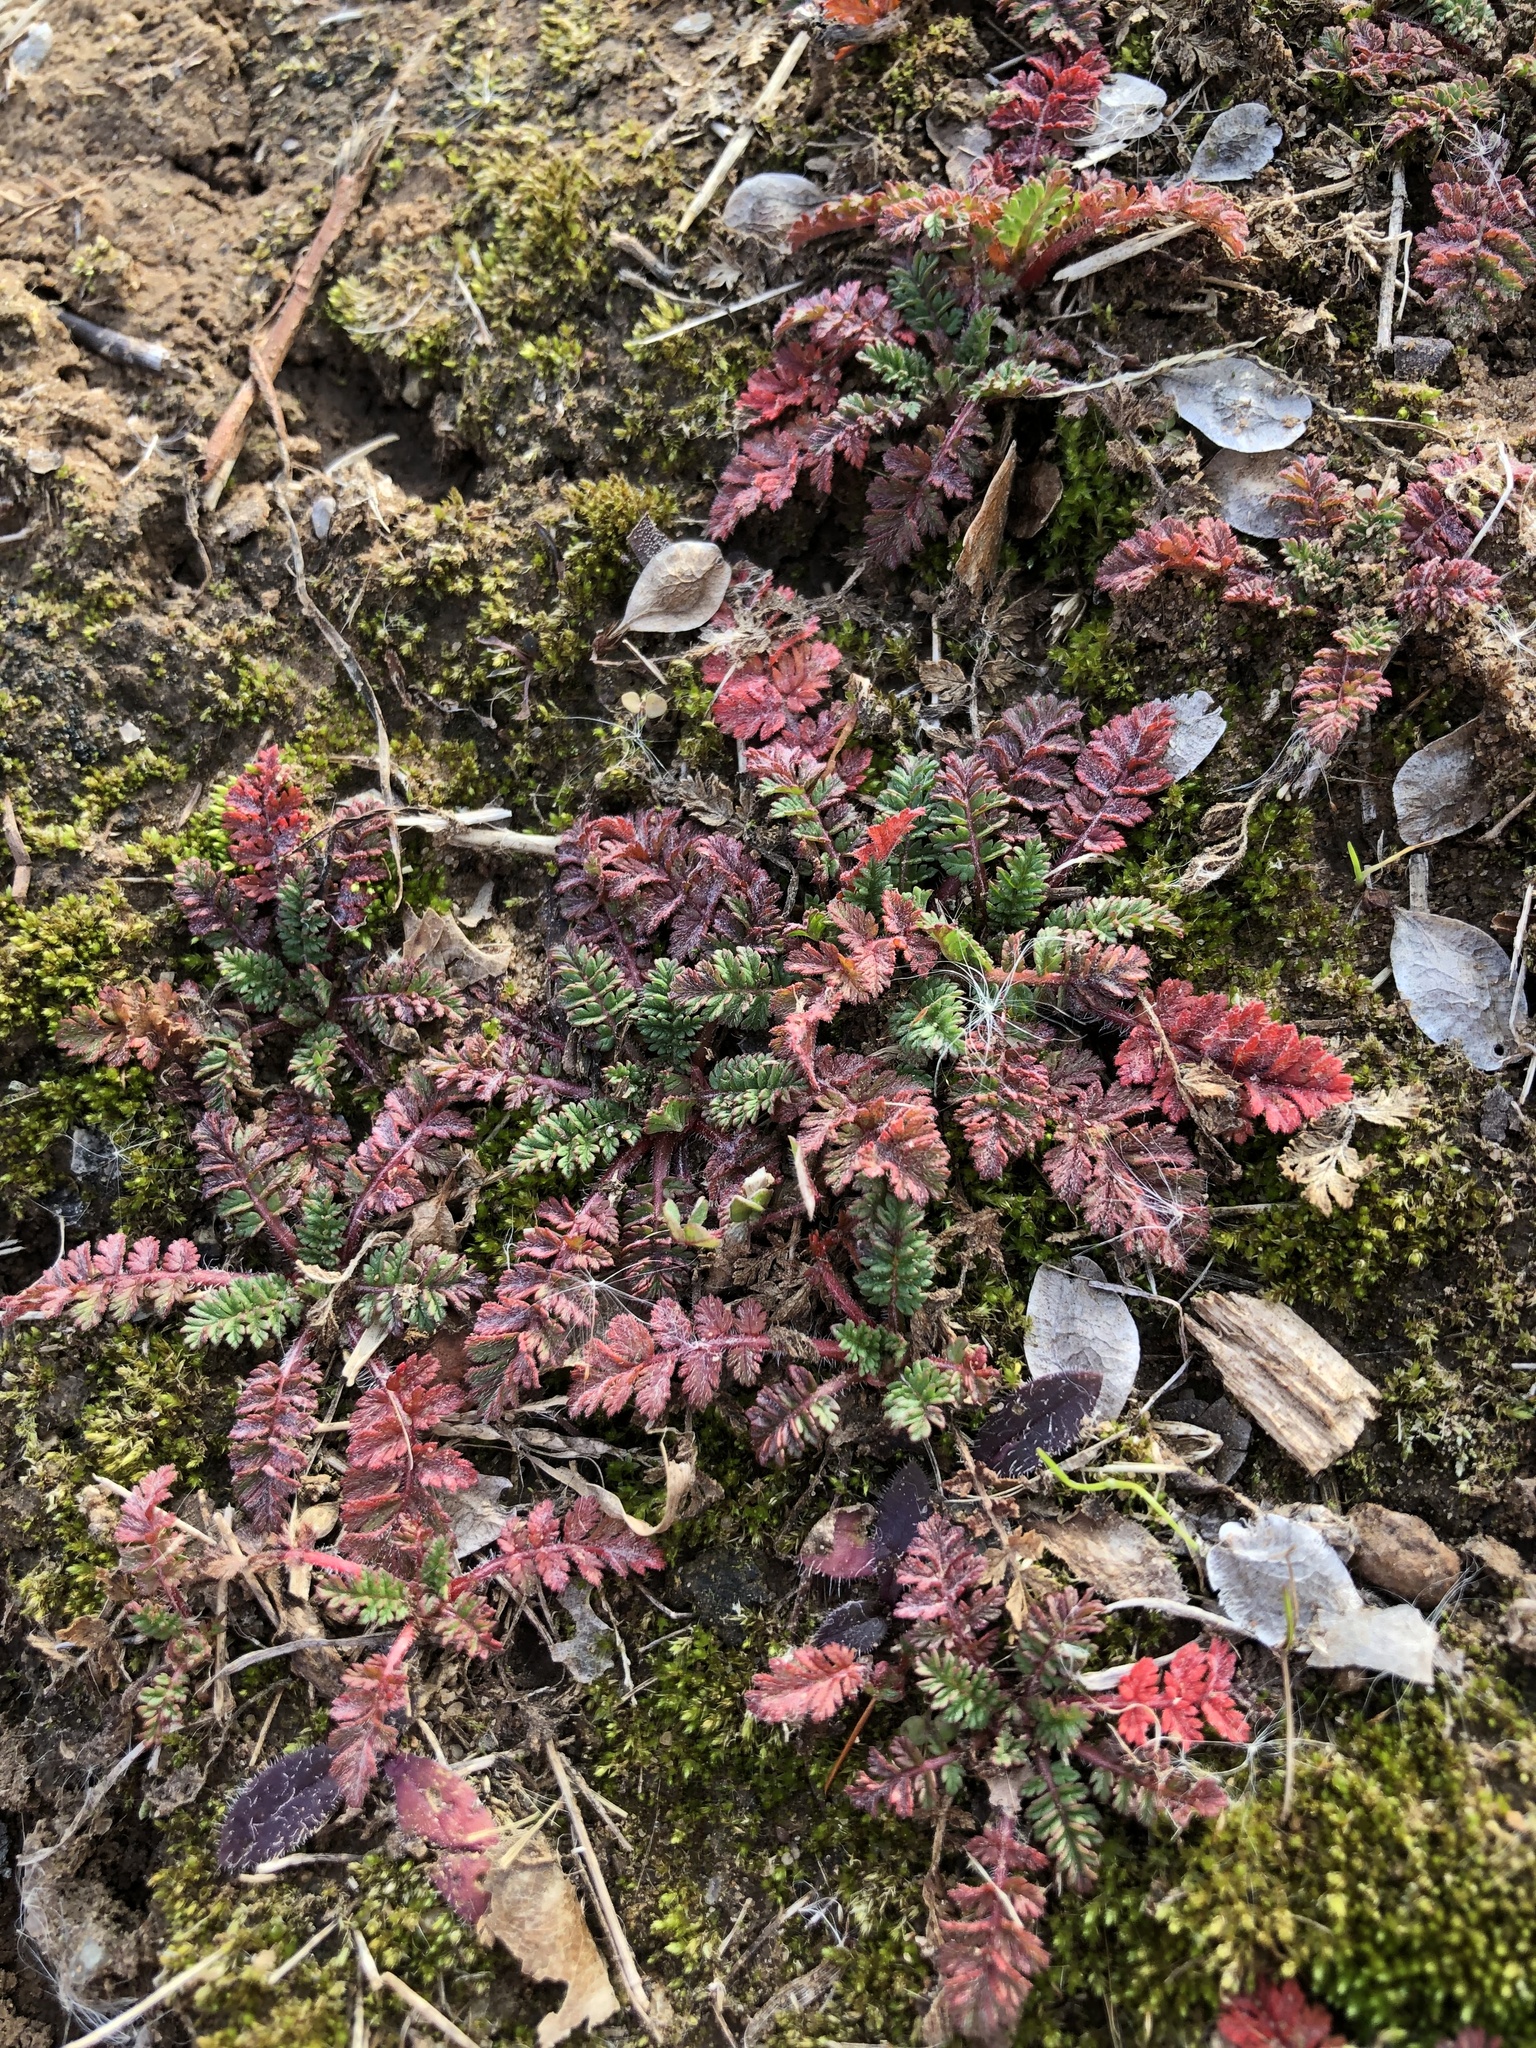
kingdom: Plantae
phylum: Tracheophyta
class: Magnoliopsida
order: Geraniales
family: Geraniaceae
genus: Erodium
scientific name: Erodium cicutarium
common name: Common stork's-bill
